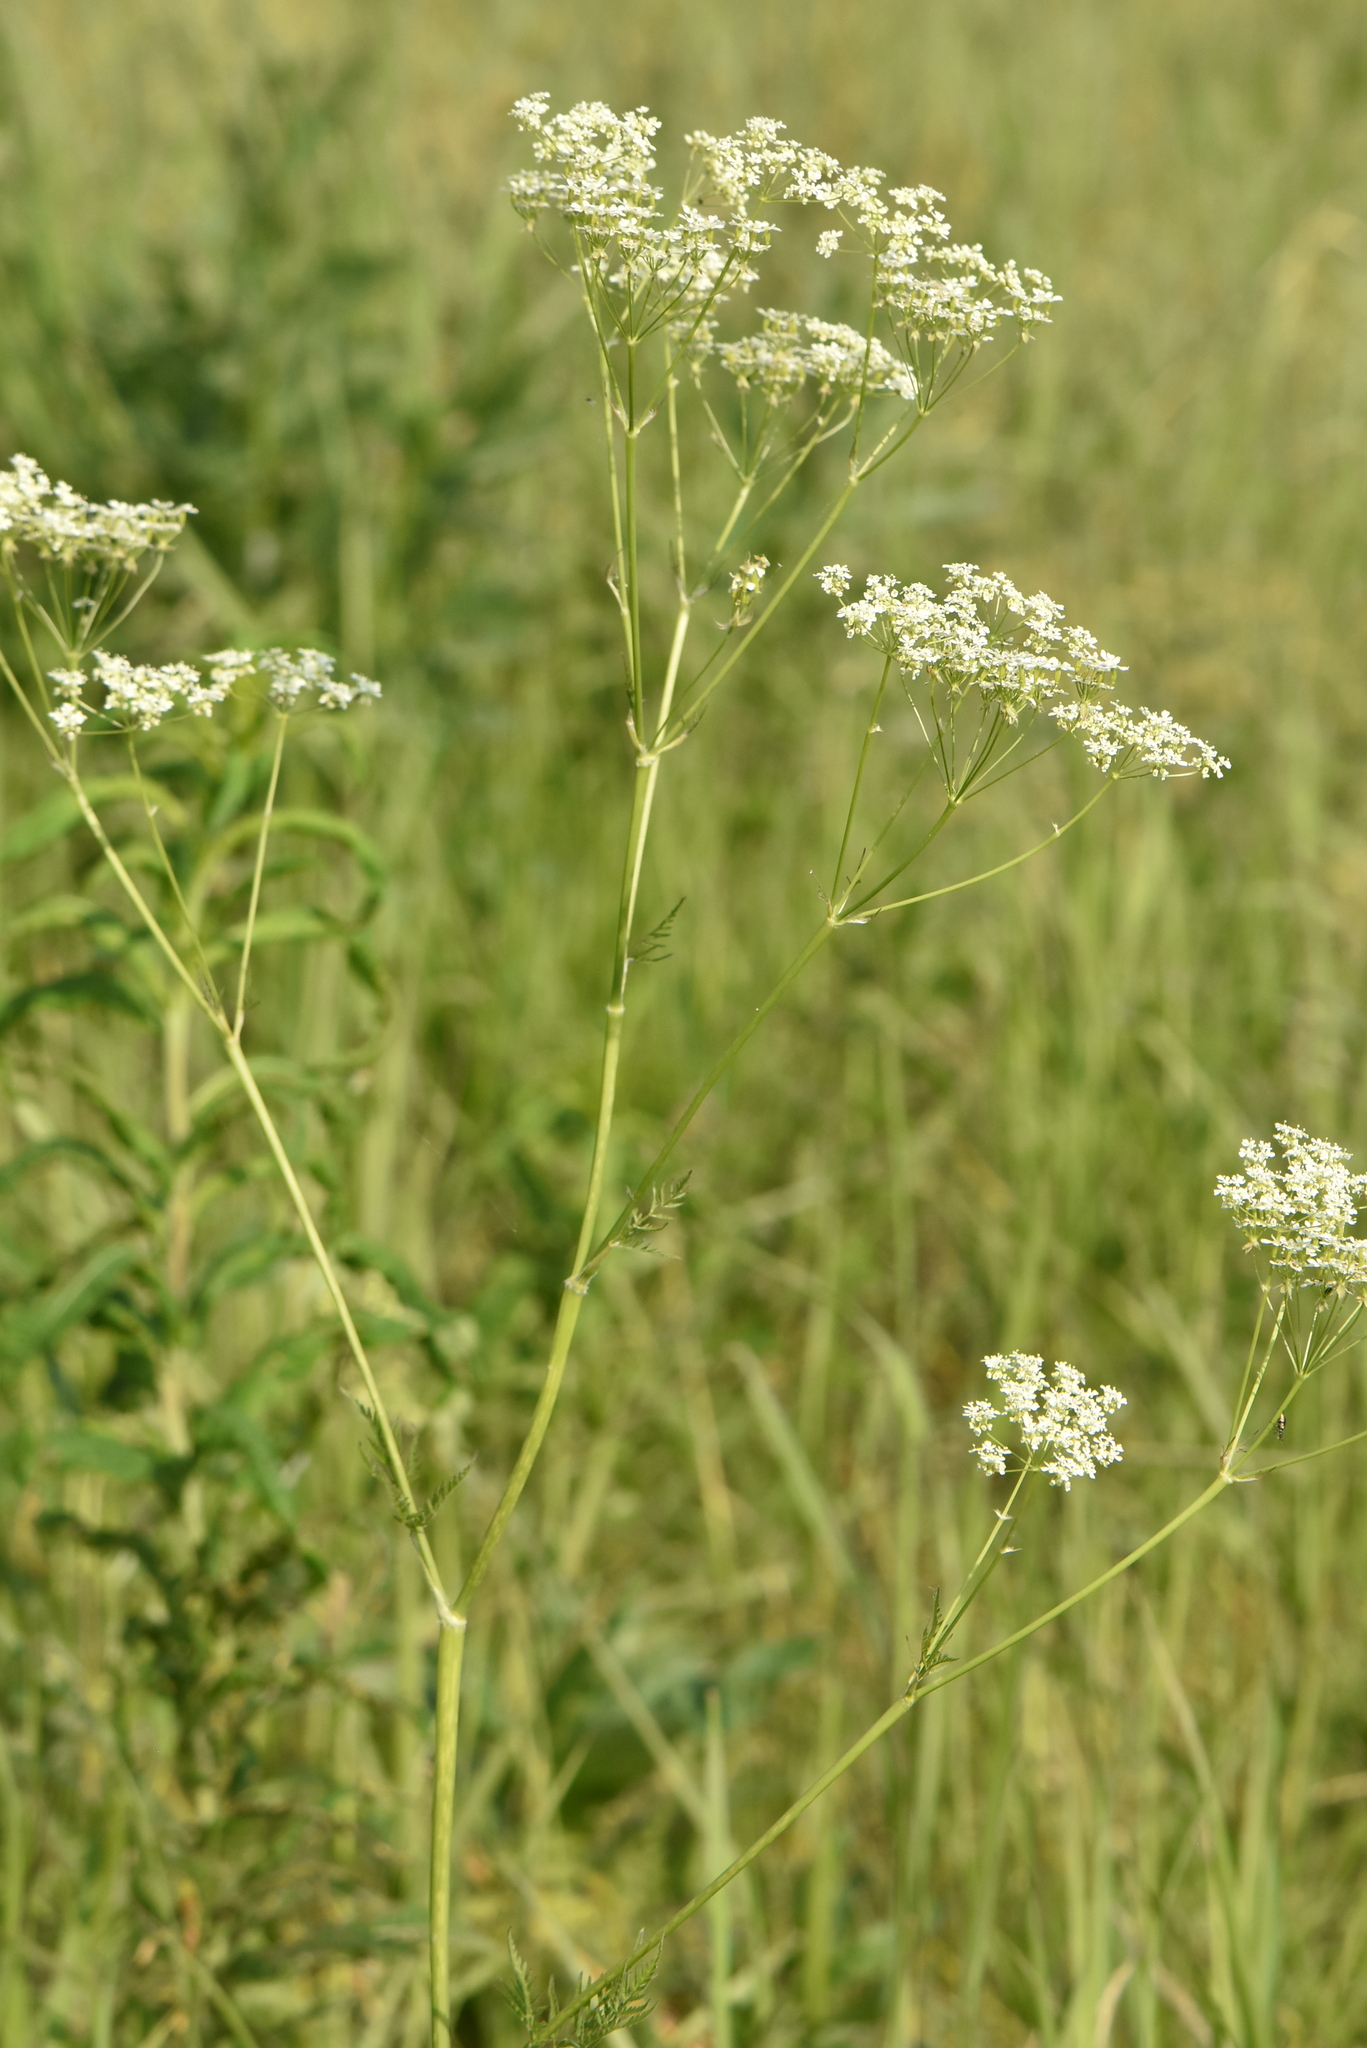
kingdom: Plantae
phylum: Tracheophyta
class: Magnoliopsida
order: Apiales
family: Apiaceae
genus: Anthriscus
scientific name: Anthriscus sylvestris
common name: Cow parsley
